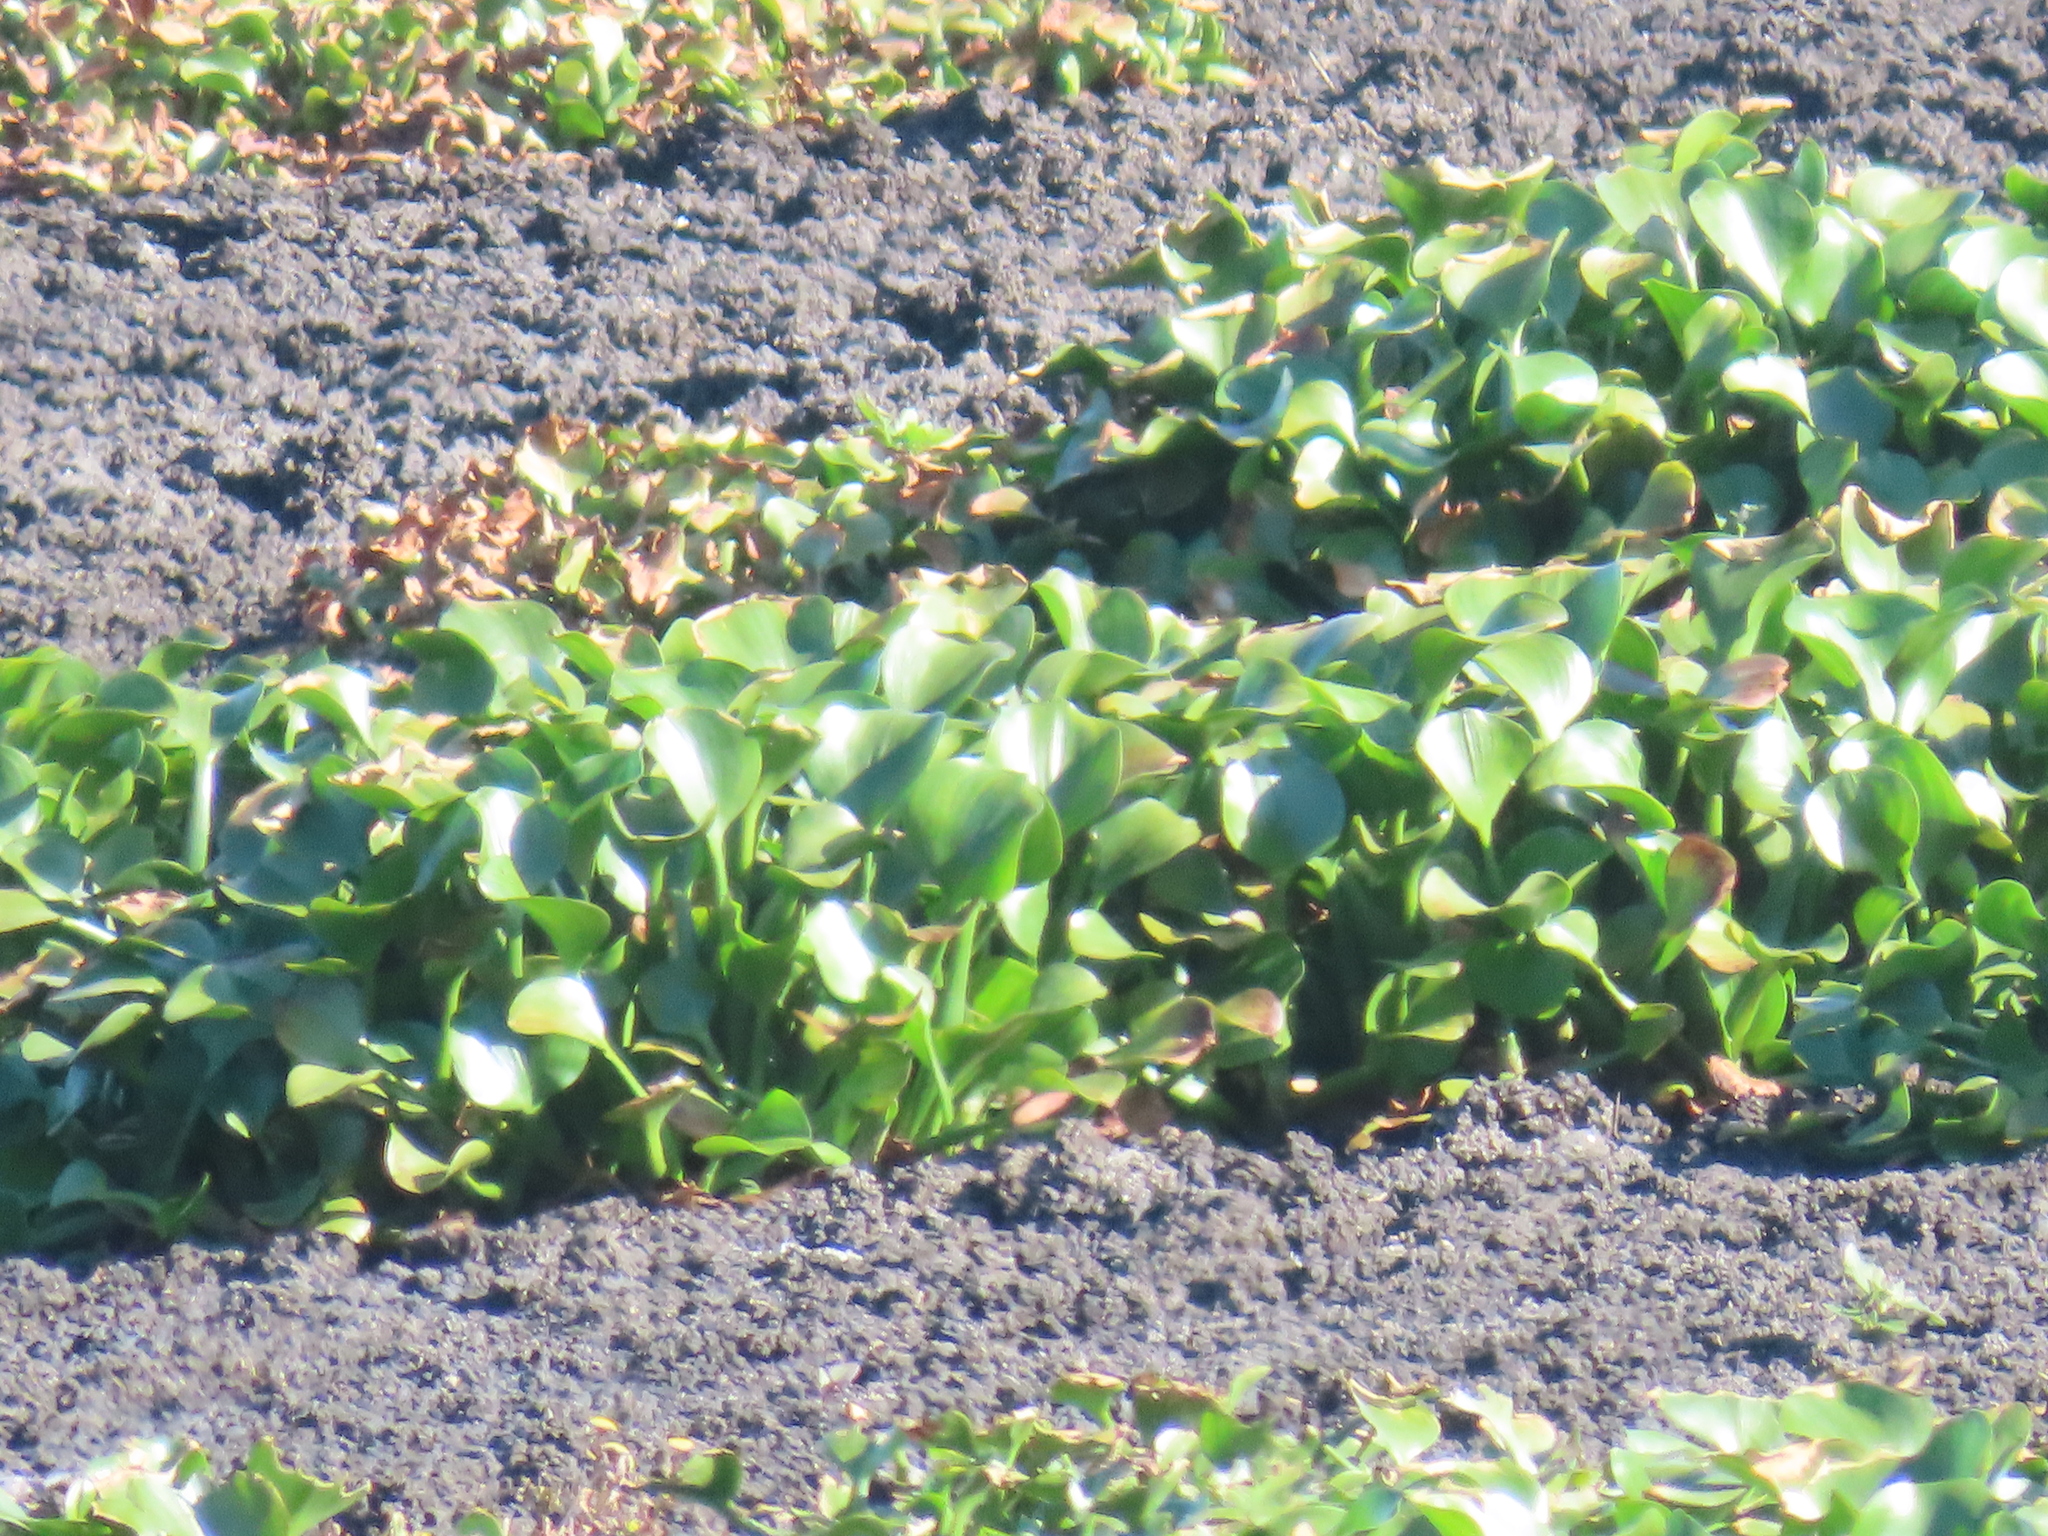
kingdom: Plantae
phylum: Tracheophyta
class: Liliopsida
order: Commelinales
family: Pontederiaceae
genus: Pontederia
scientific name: Pontederia crassipes
